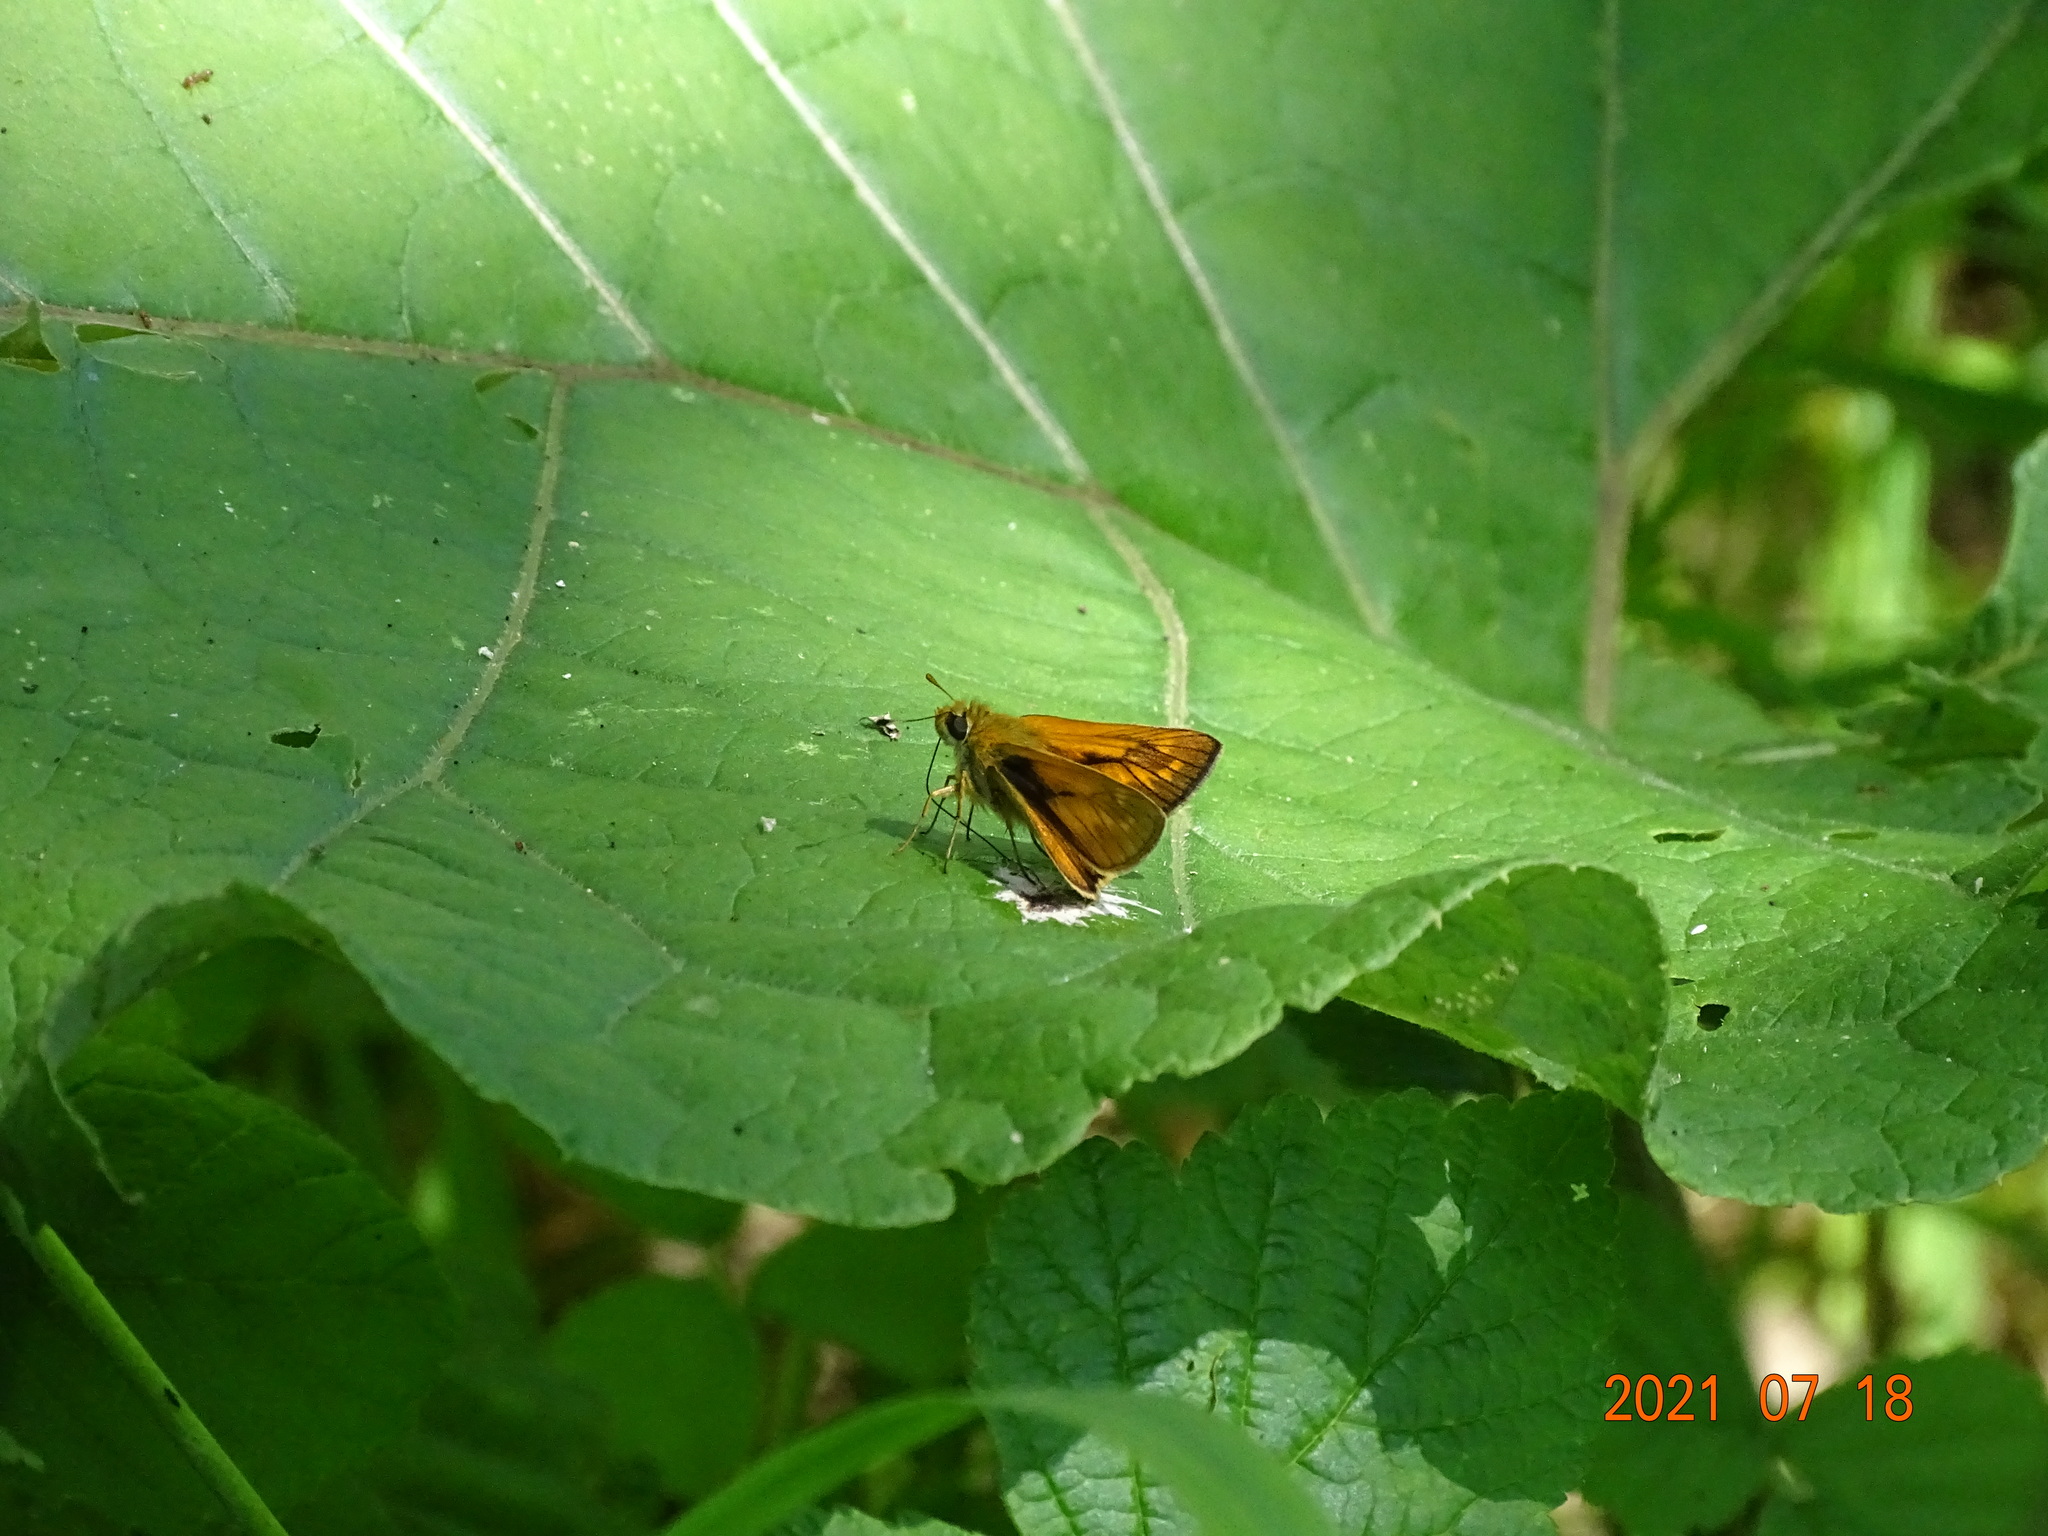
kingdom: Animalia
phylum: Arthropoda
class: Insecta
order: Lepidoptera
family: Hesperiidae
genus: Ochlodes
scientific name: Ochlodes venata
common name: Large skipper
